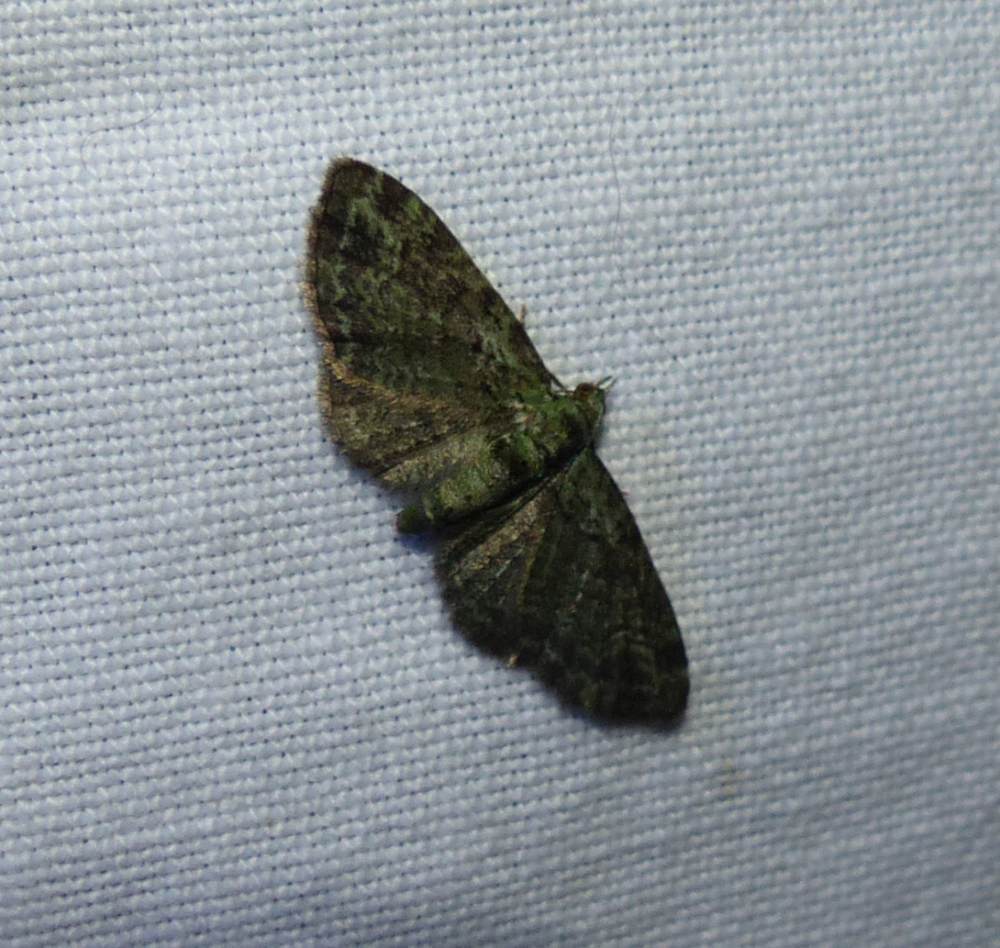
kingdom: Animalia
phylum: Arthropoda
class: Insecta
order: Lepidoptera
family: Geometridae
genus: Pasiphila
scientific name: Pasiphila rectangulata
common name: Green pug
